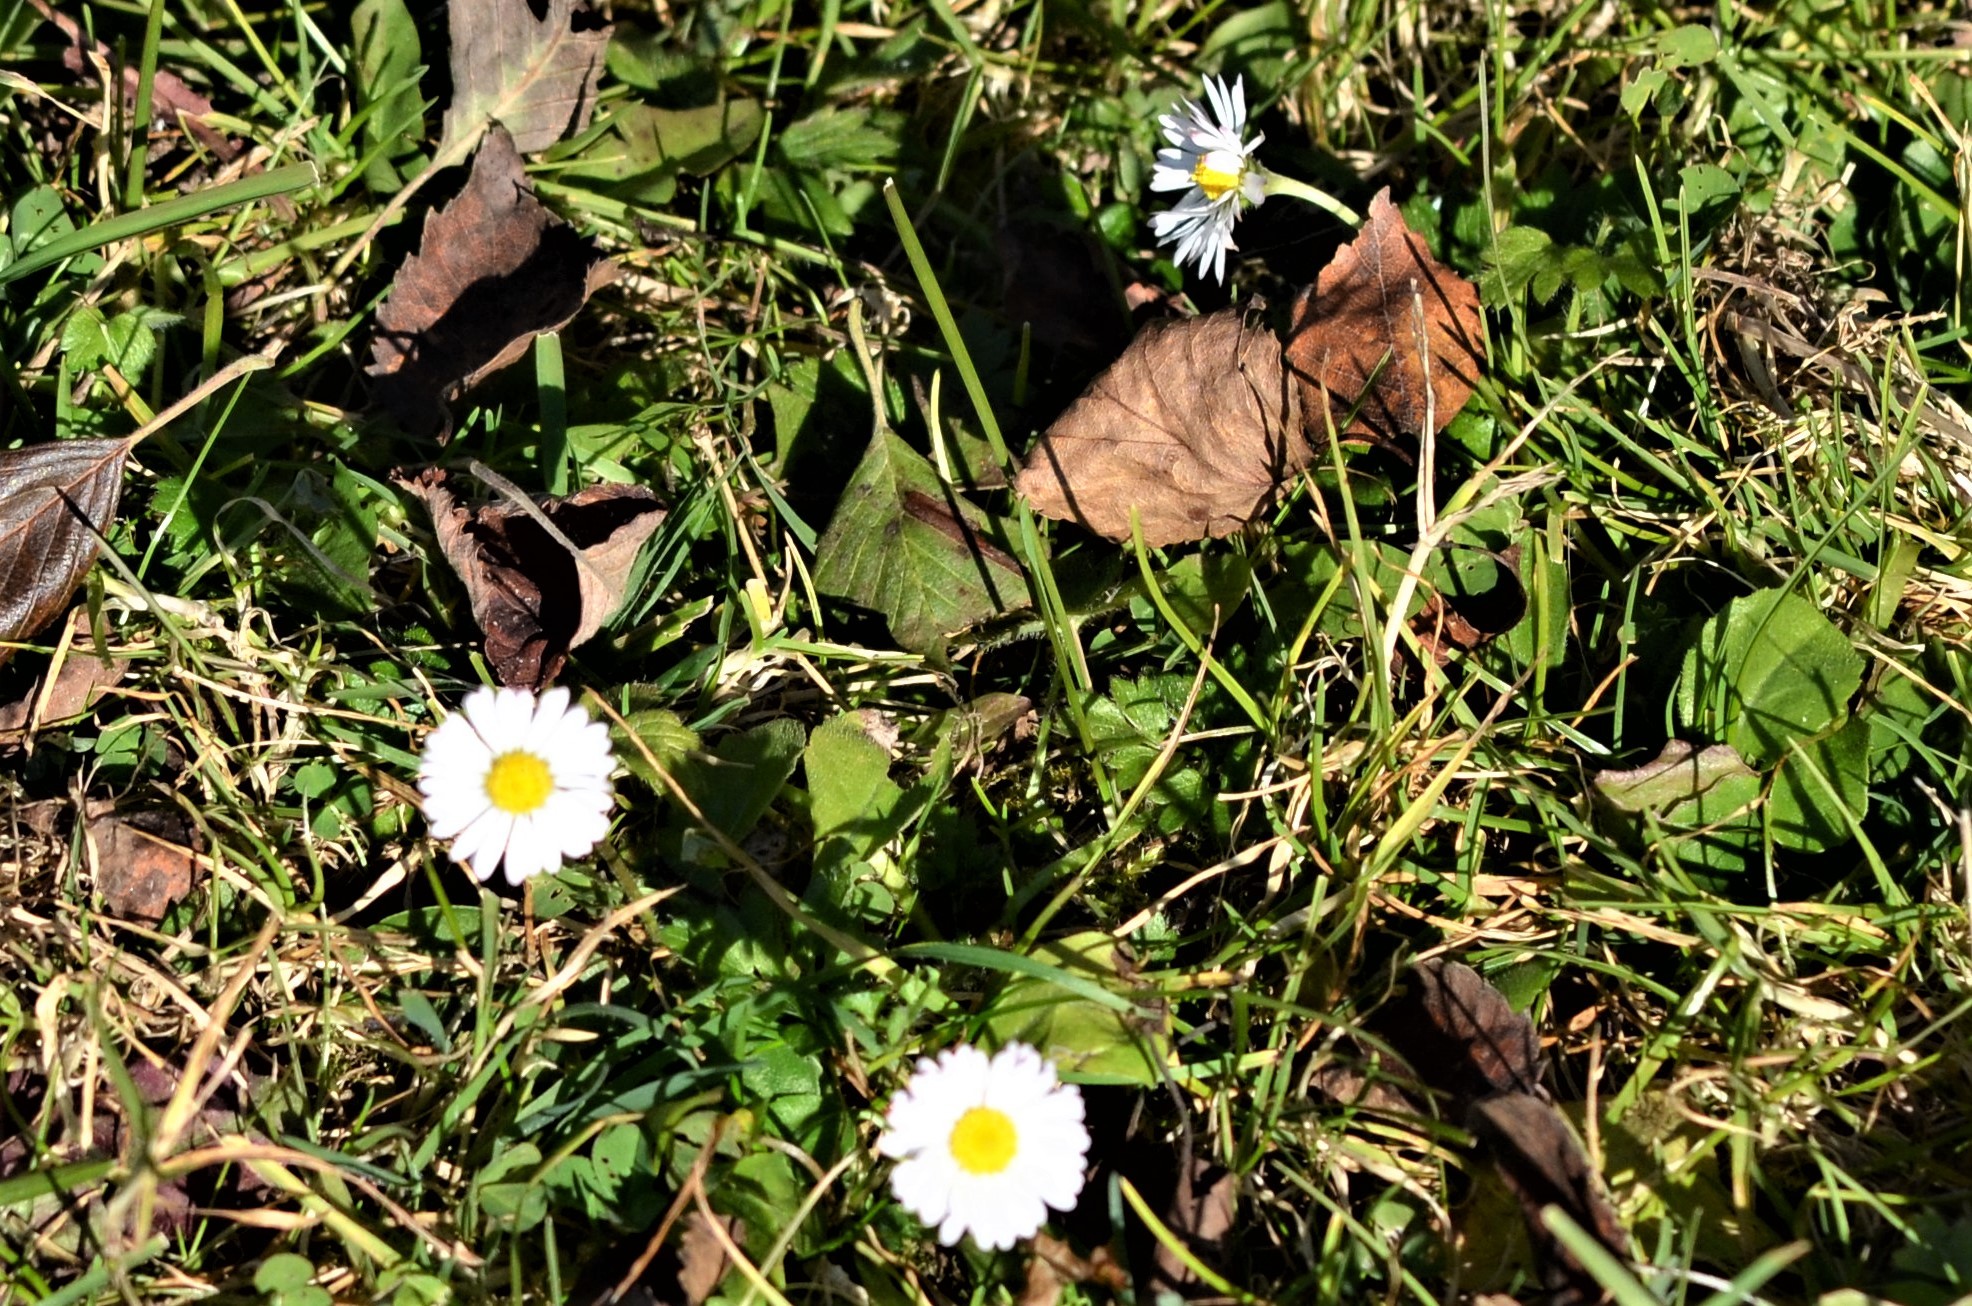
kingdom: Plantae
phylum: Tracheophyta
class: Magnoliopsida
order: Asterales
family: Asteraceae
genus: Bellis
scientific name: Bellis perennis
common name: Lawndaisy
